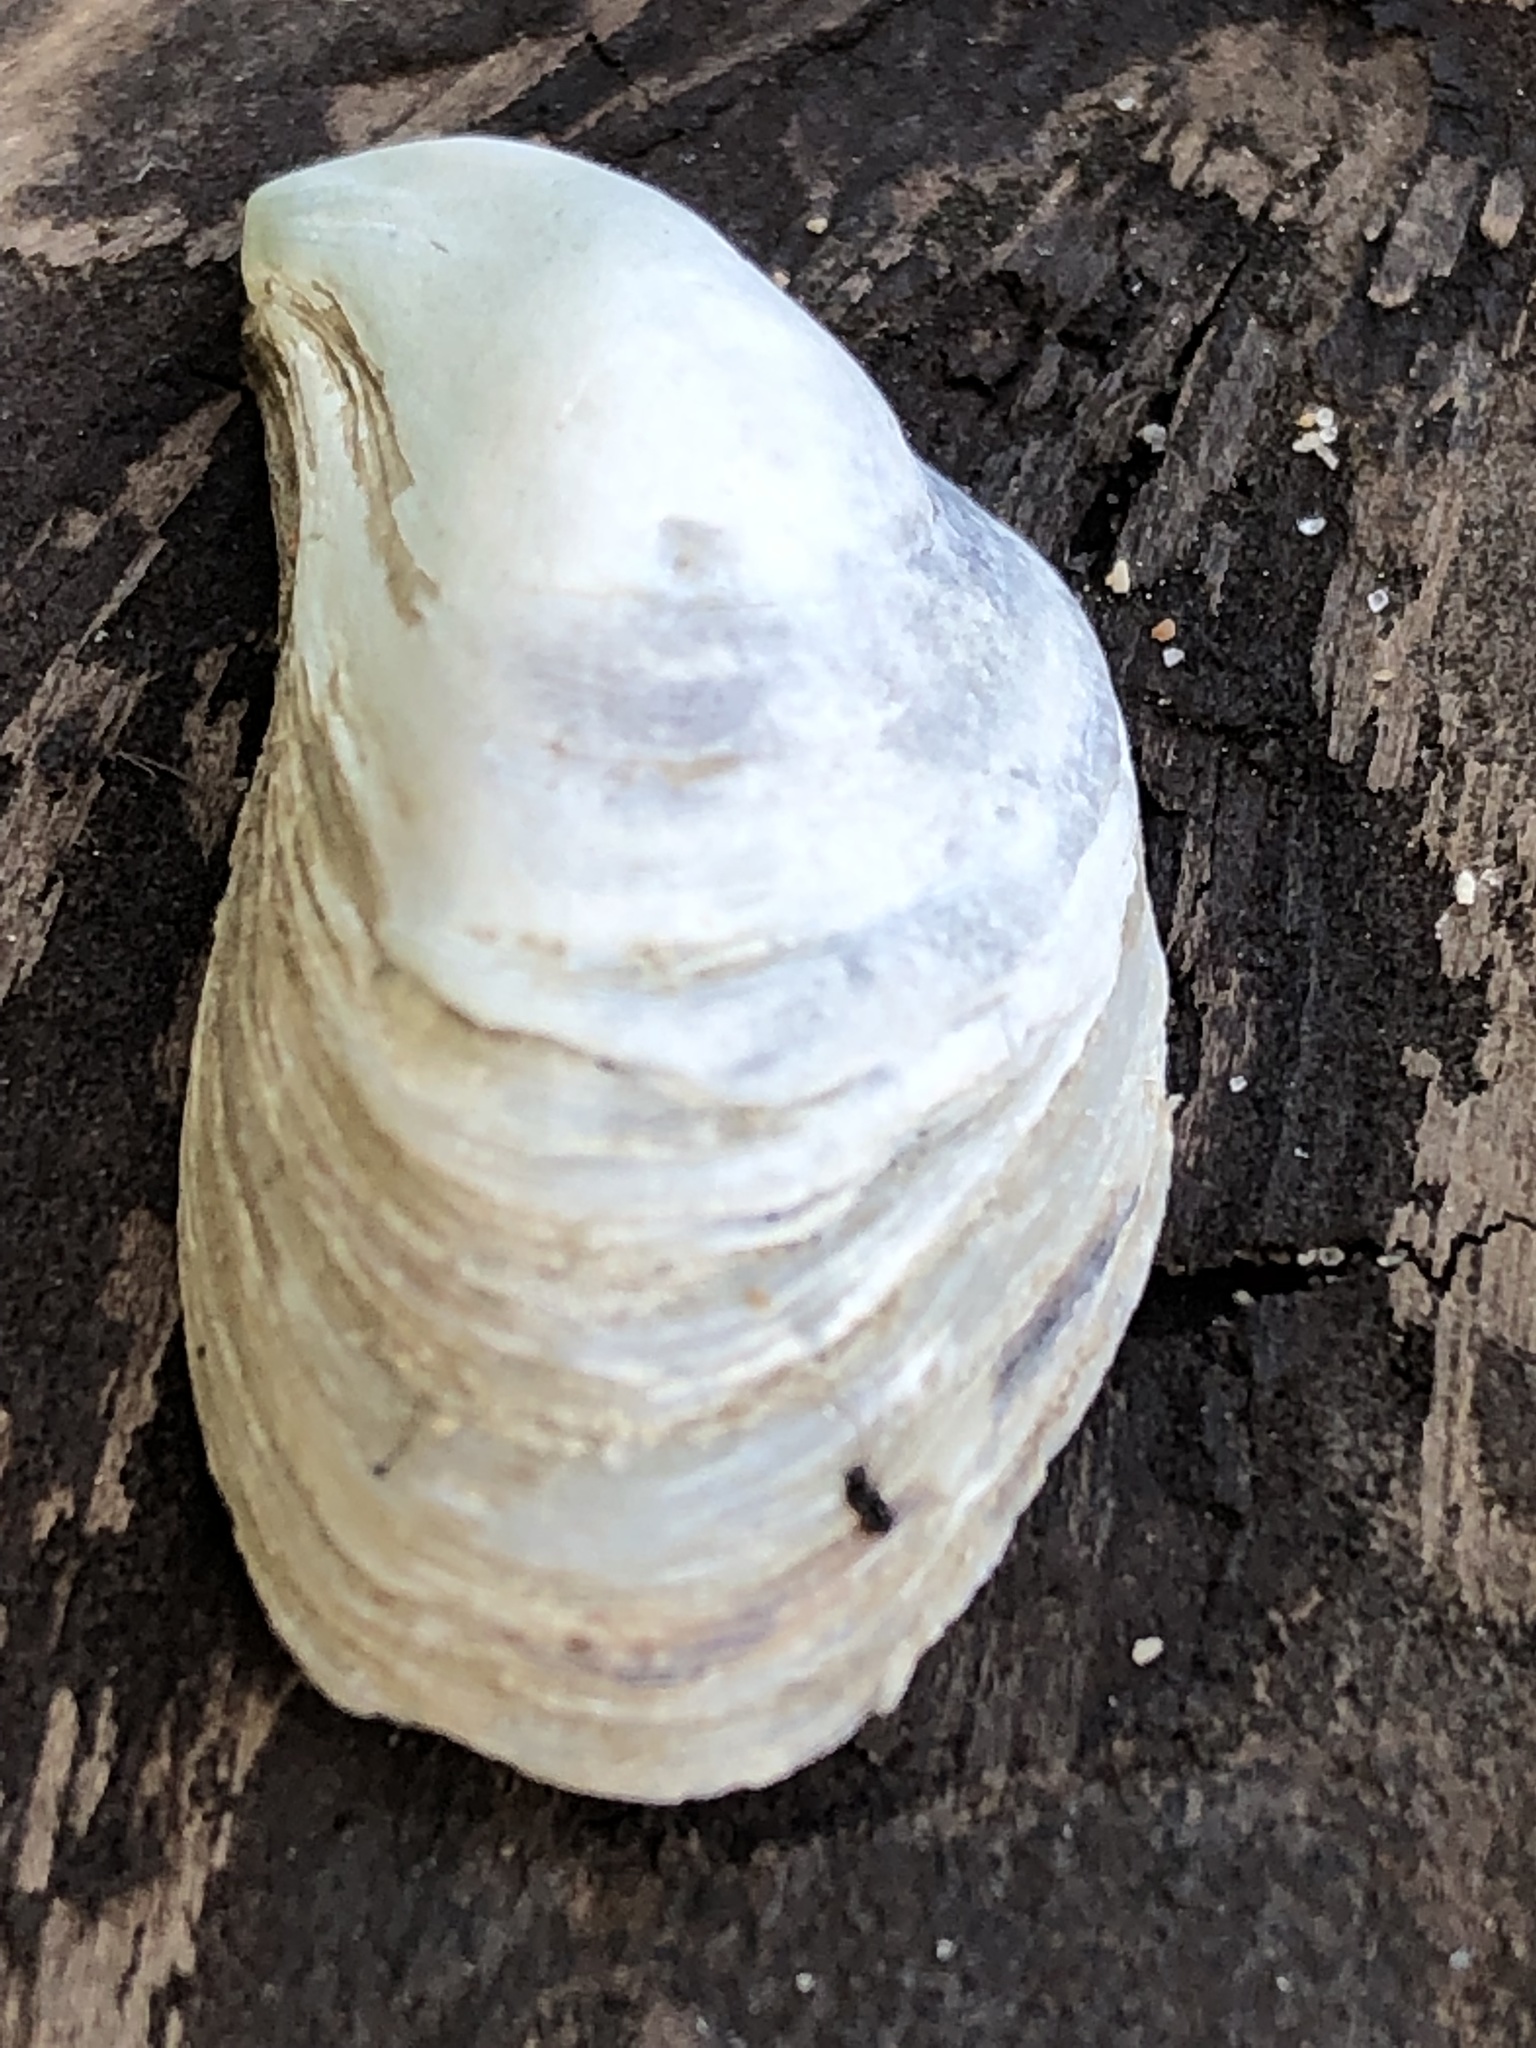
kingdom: Animalia
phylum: Mollusca
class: Bivalvia
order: Myida
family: Dreissenidae
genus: Dreissena
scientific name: Dreissena bugensis
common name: Quagga mussel
